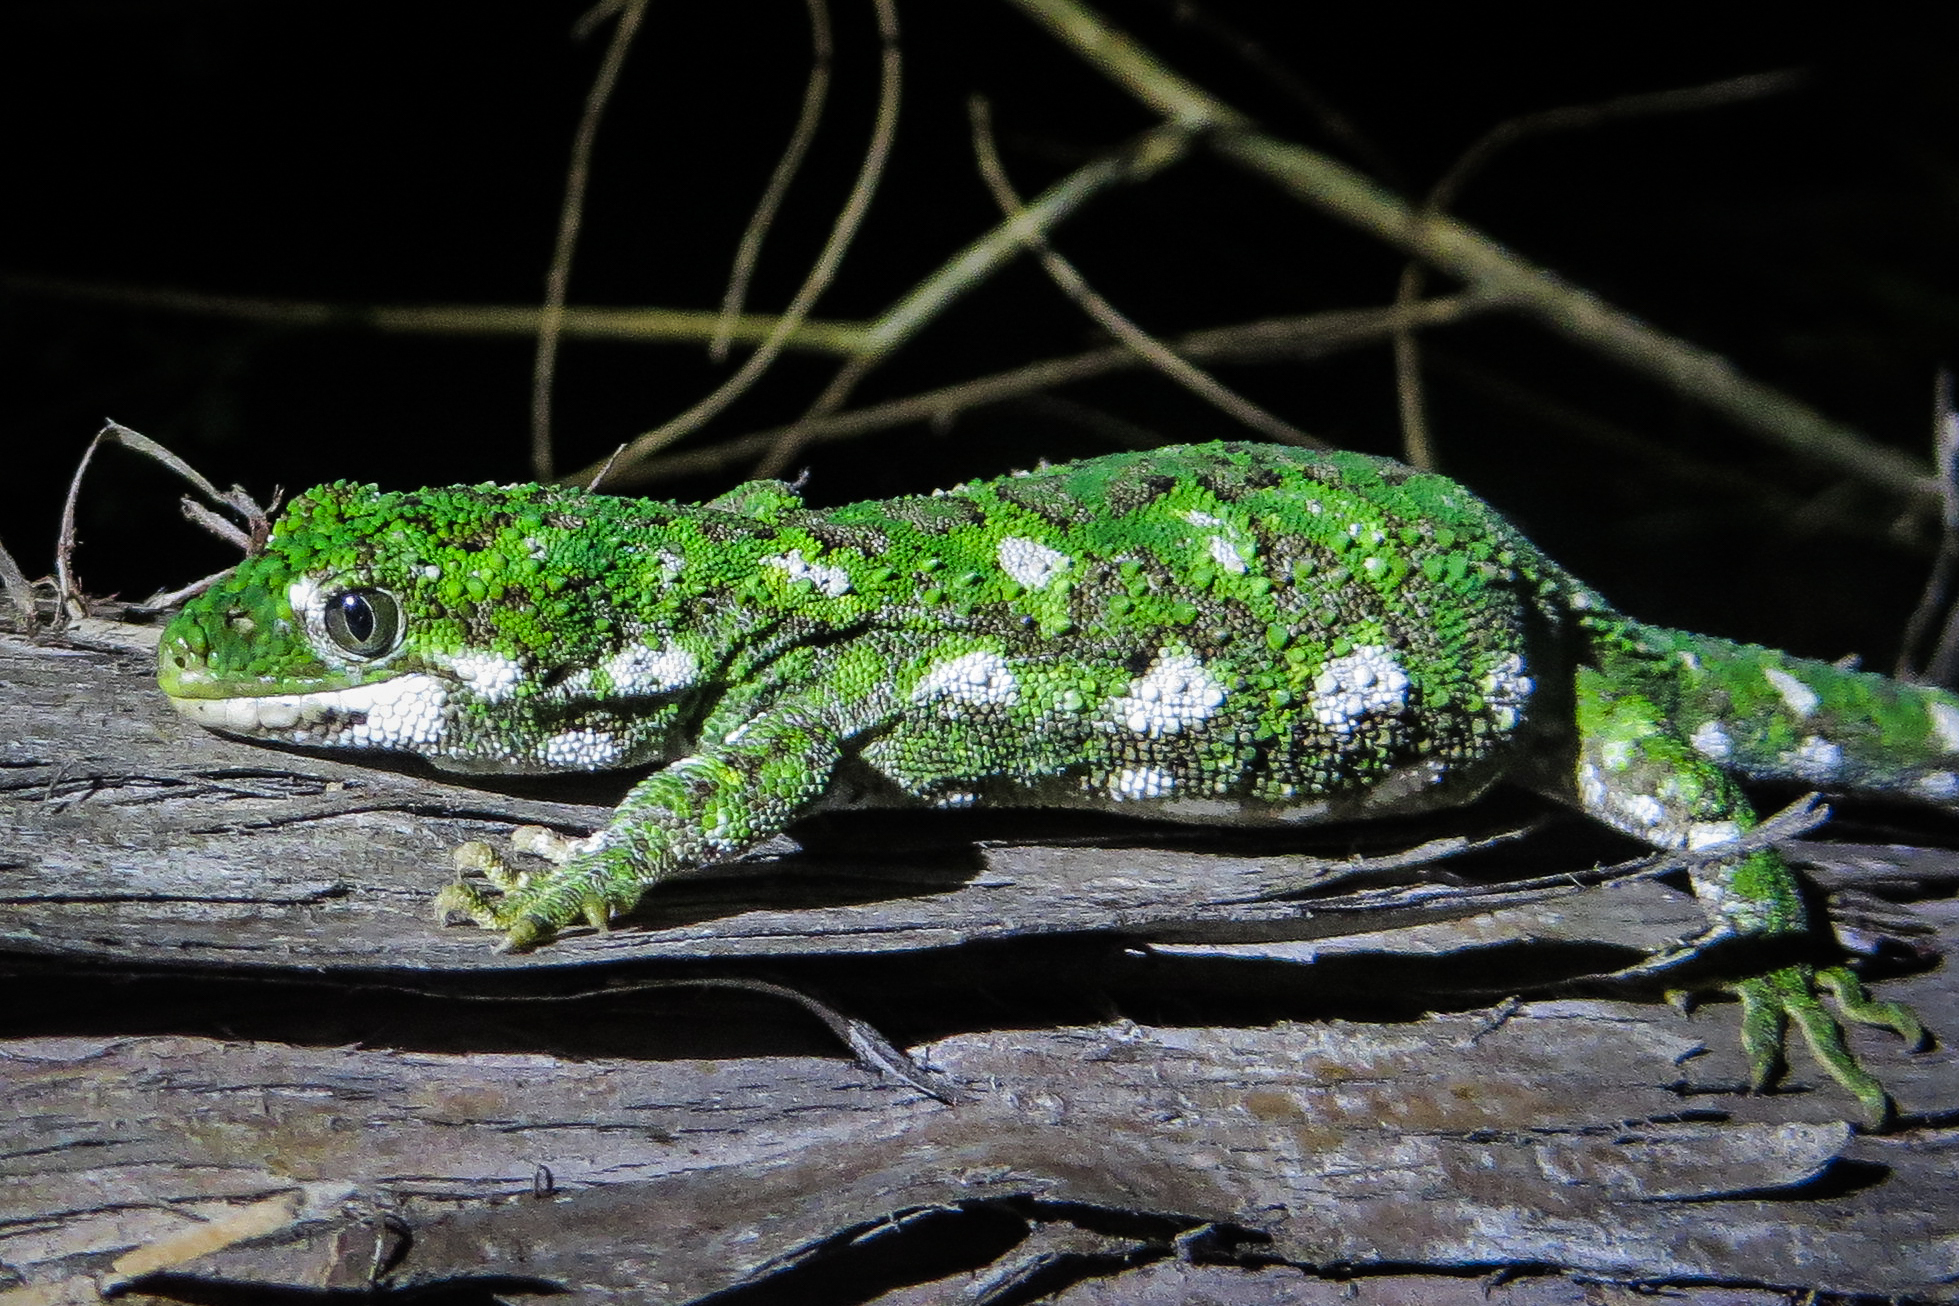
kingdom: Animalia
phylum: Chordata
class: Squamata
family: Diplodactylidae
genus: Naultinus
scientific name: Naultinus rudis
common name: Natural tree gecko
